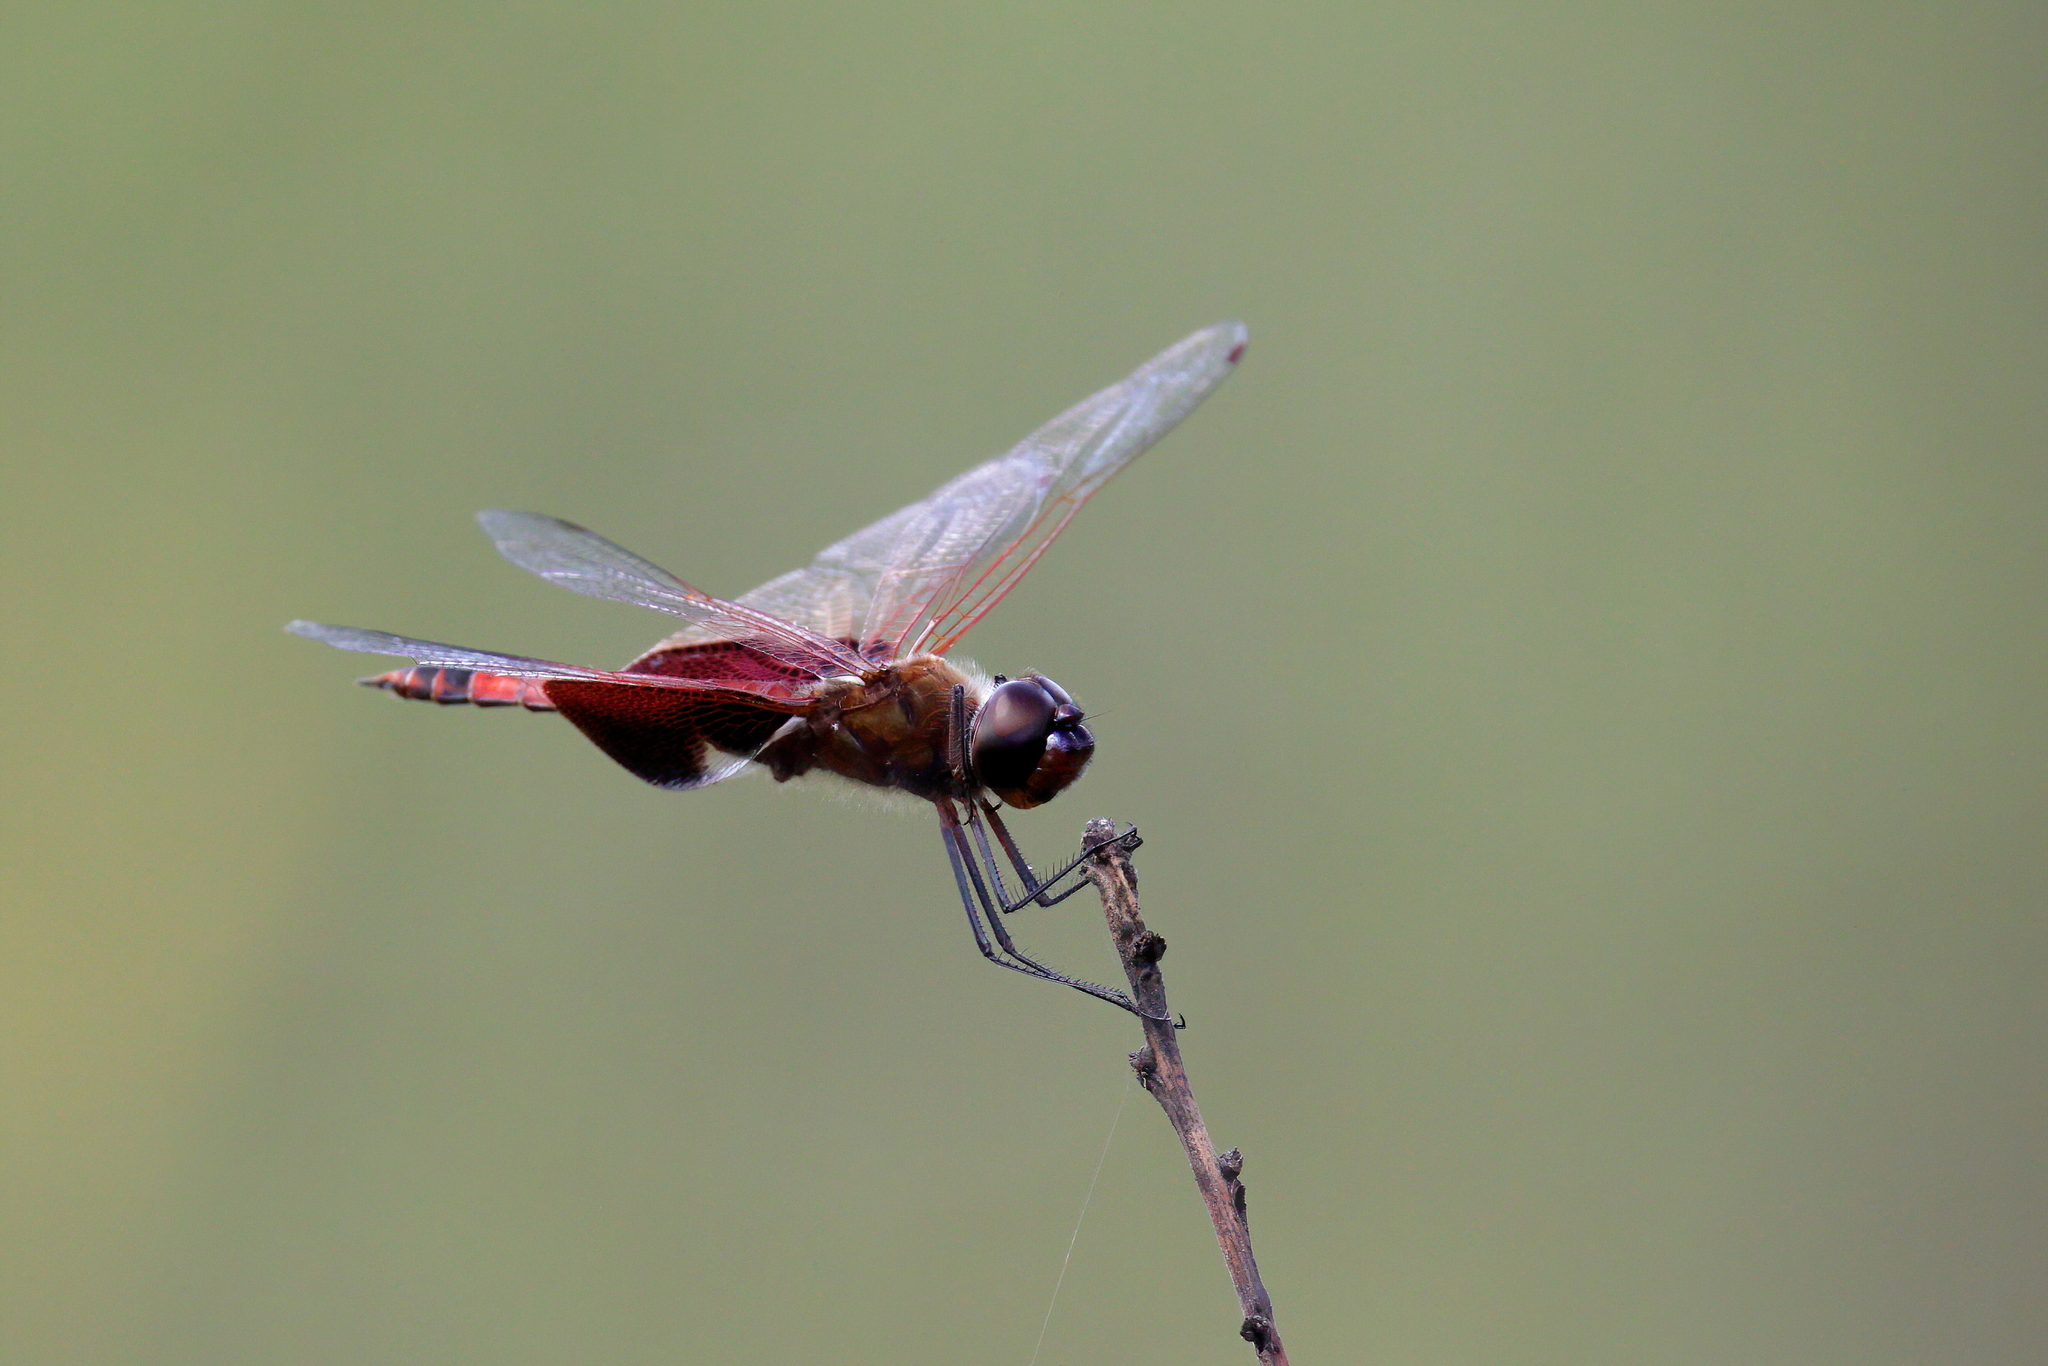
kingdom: Animalia
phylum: Arthropoda
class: Insecta
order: Odonata
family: Libellulidae
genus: Tramea
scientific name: Tramea carolina
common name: Carolina saddlebags
